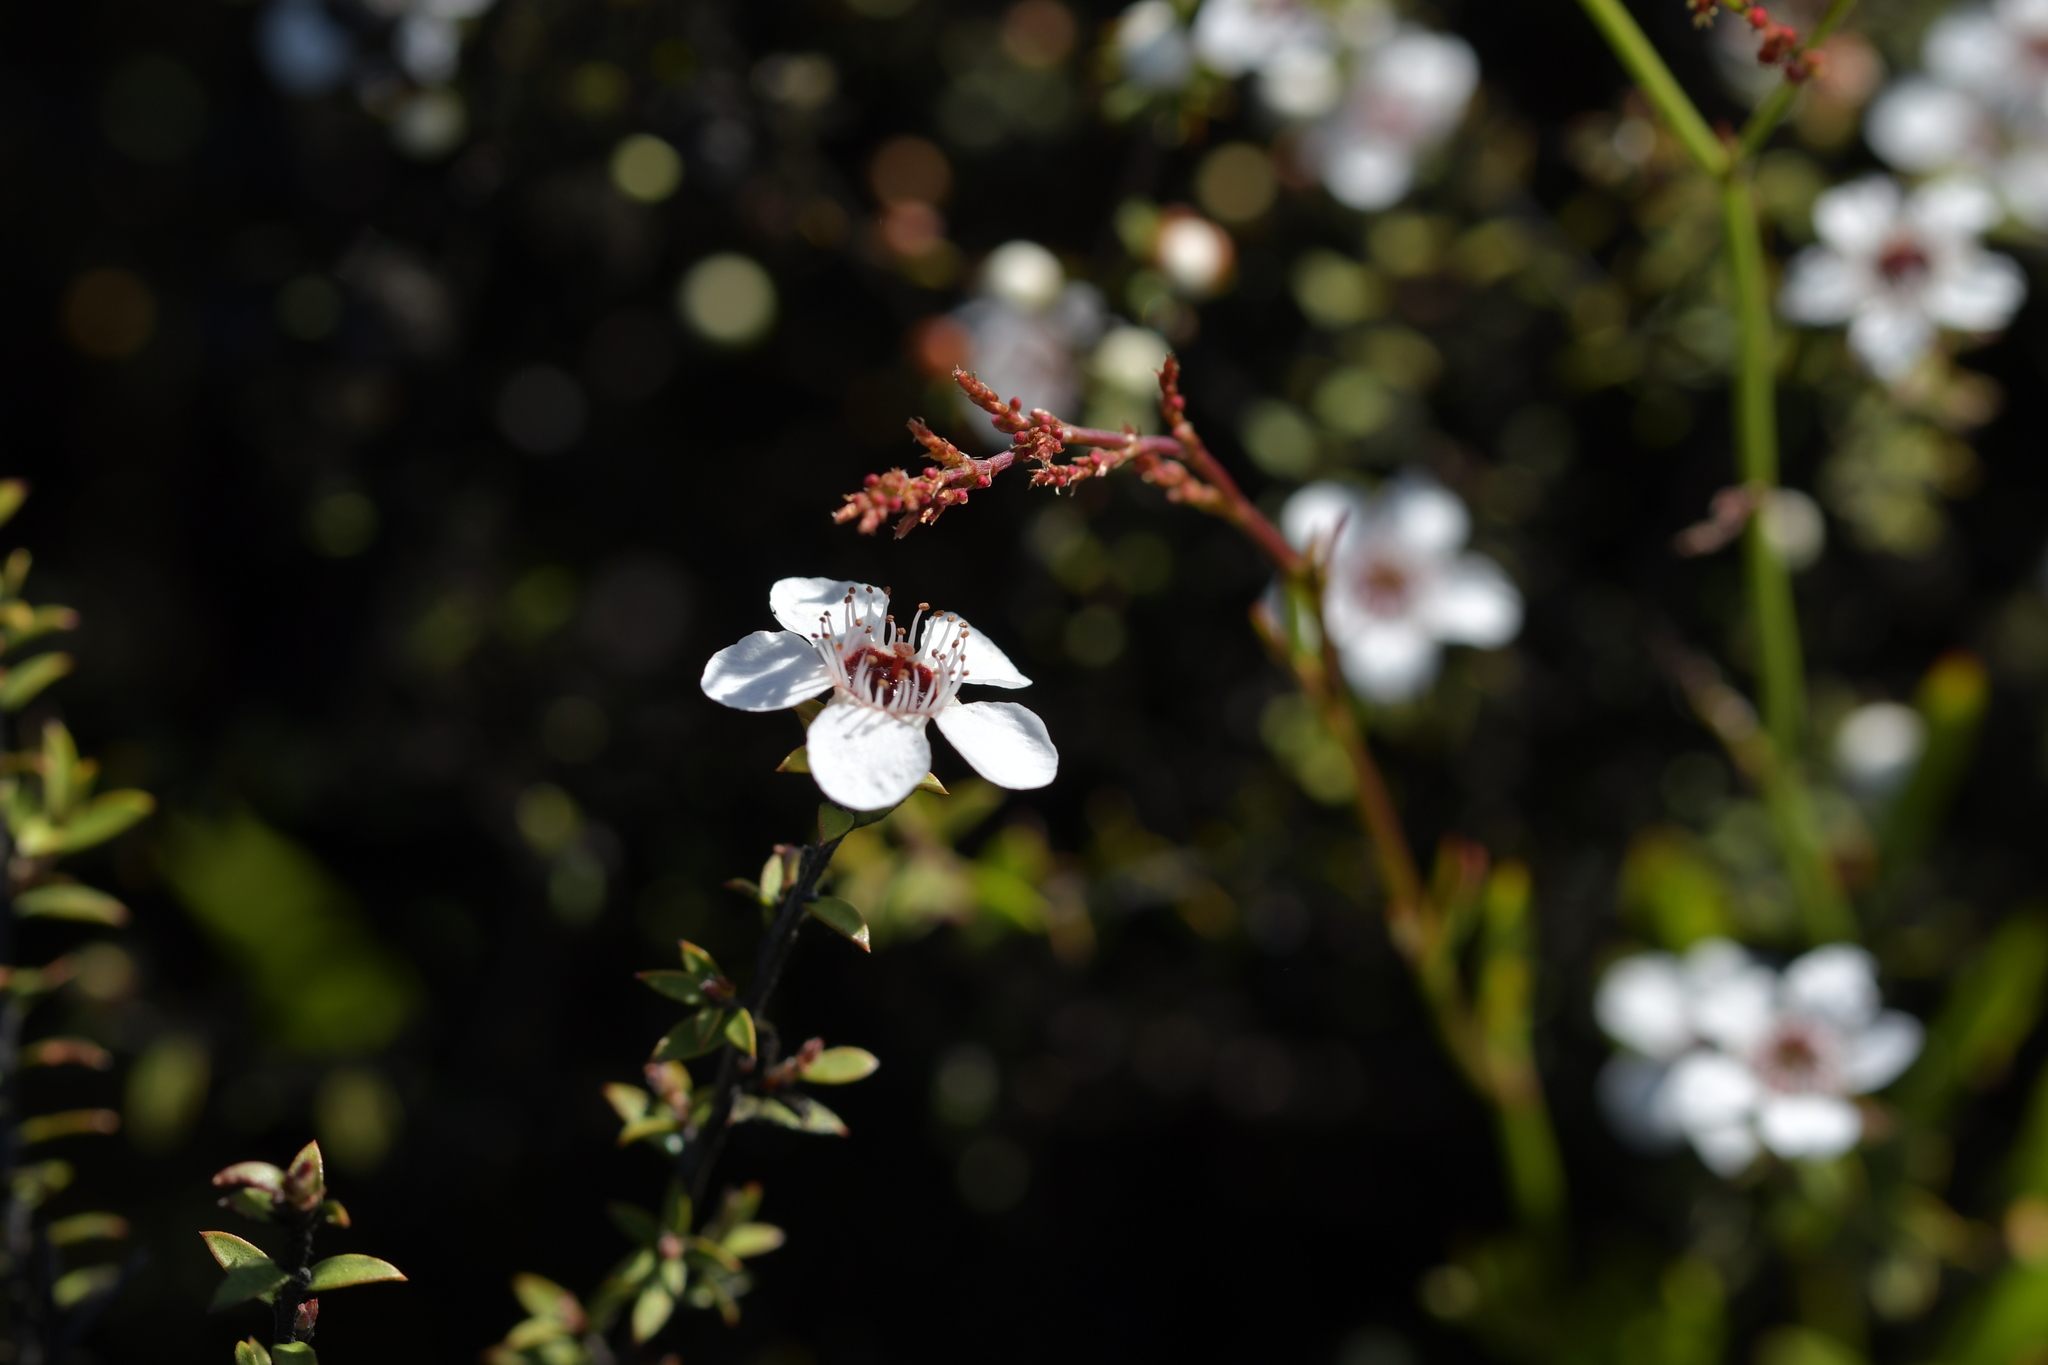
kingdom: Plantae
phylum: Tracheophyta
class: Magnoliopsida
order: Myrtales
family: Myrtaceae
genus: Leptospermum
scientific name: Leptospermum scoparium
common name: Broom tea-tree
